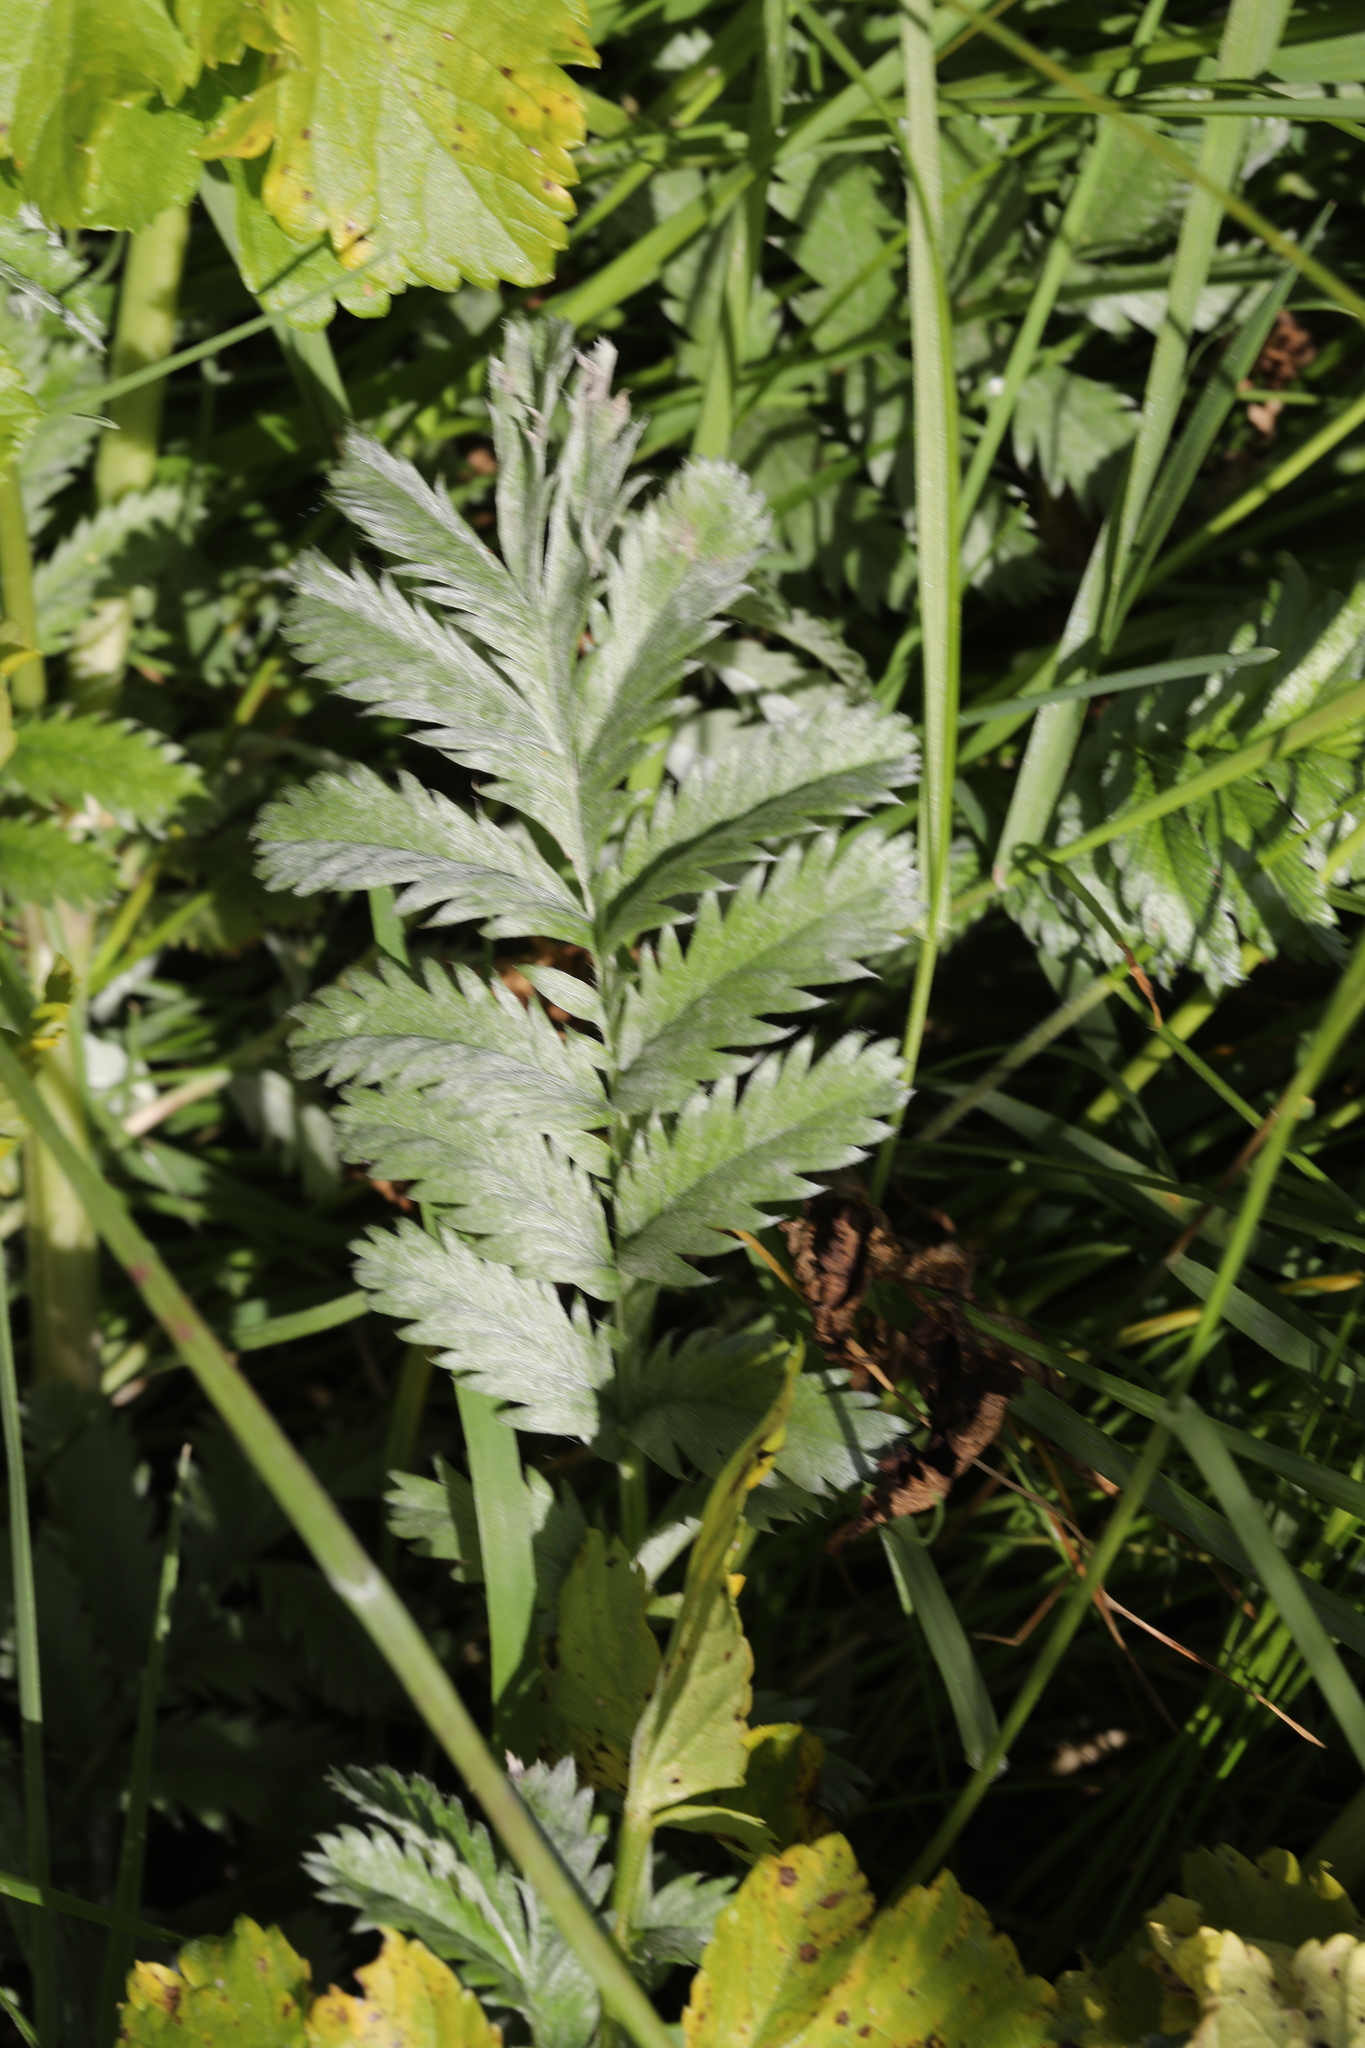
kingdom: Plantae
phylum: Tracheophyta
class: Magnoliopsida
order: Rosales
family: Rosaceae
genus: Argentina
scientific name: Argentina anserina
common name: Common silverweed
